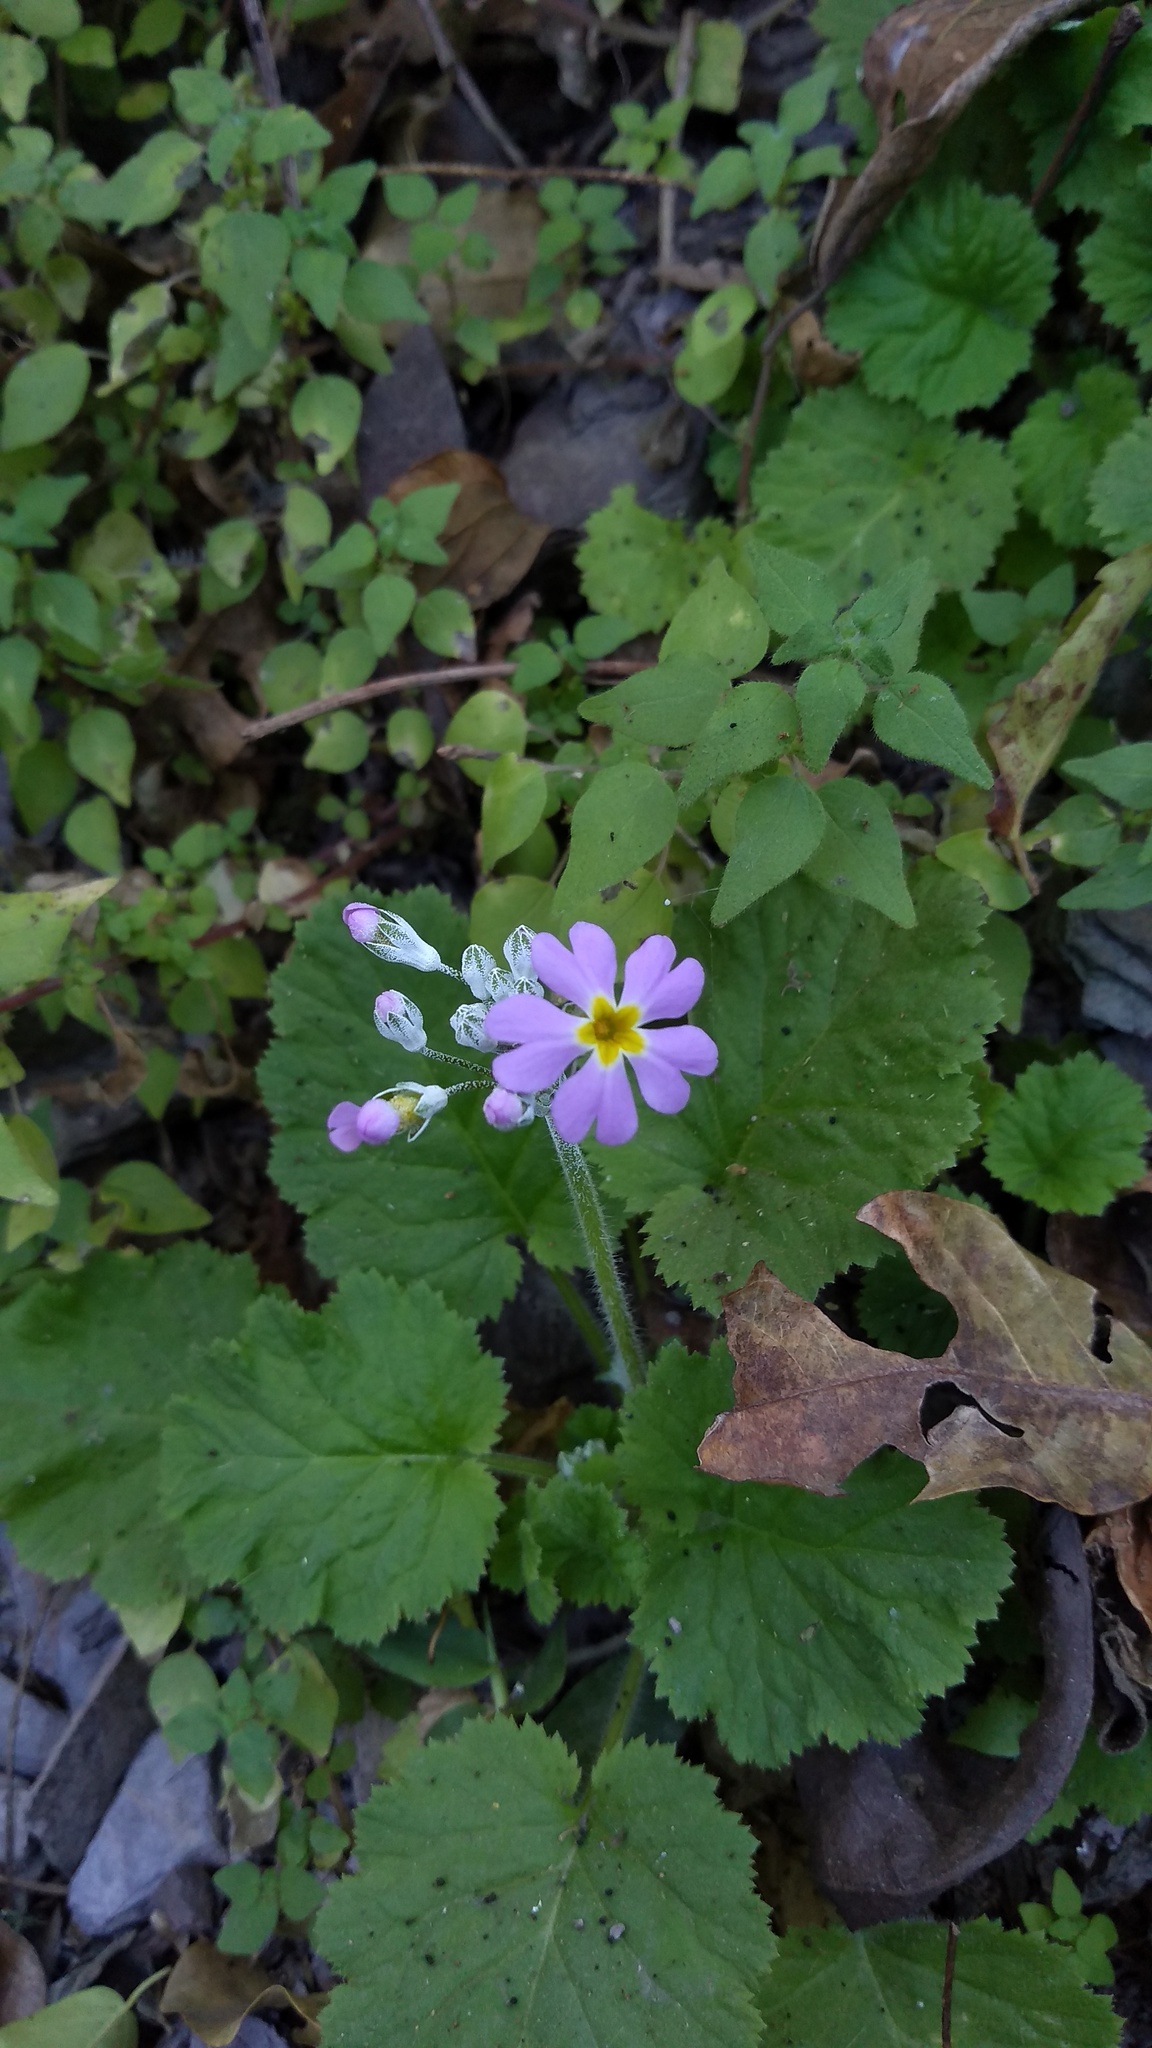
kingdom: Plantae
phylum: Tracheophyta
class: Magnoliopsida
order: Ericales
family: Primulaceae
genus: Primula
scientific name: Primula malacoides
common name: Baby primrose
